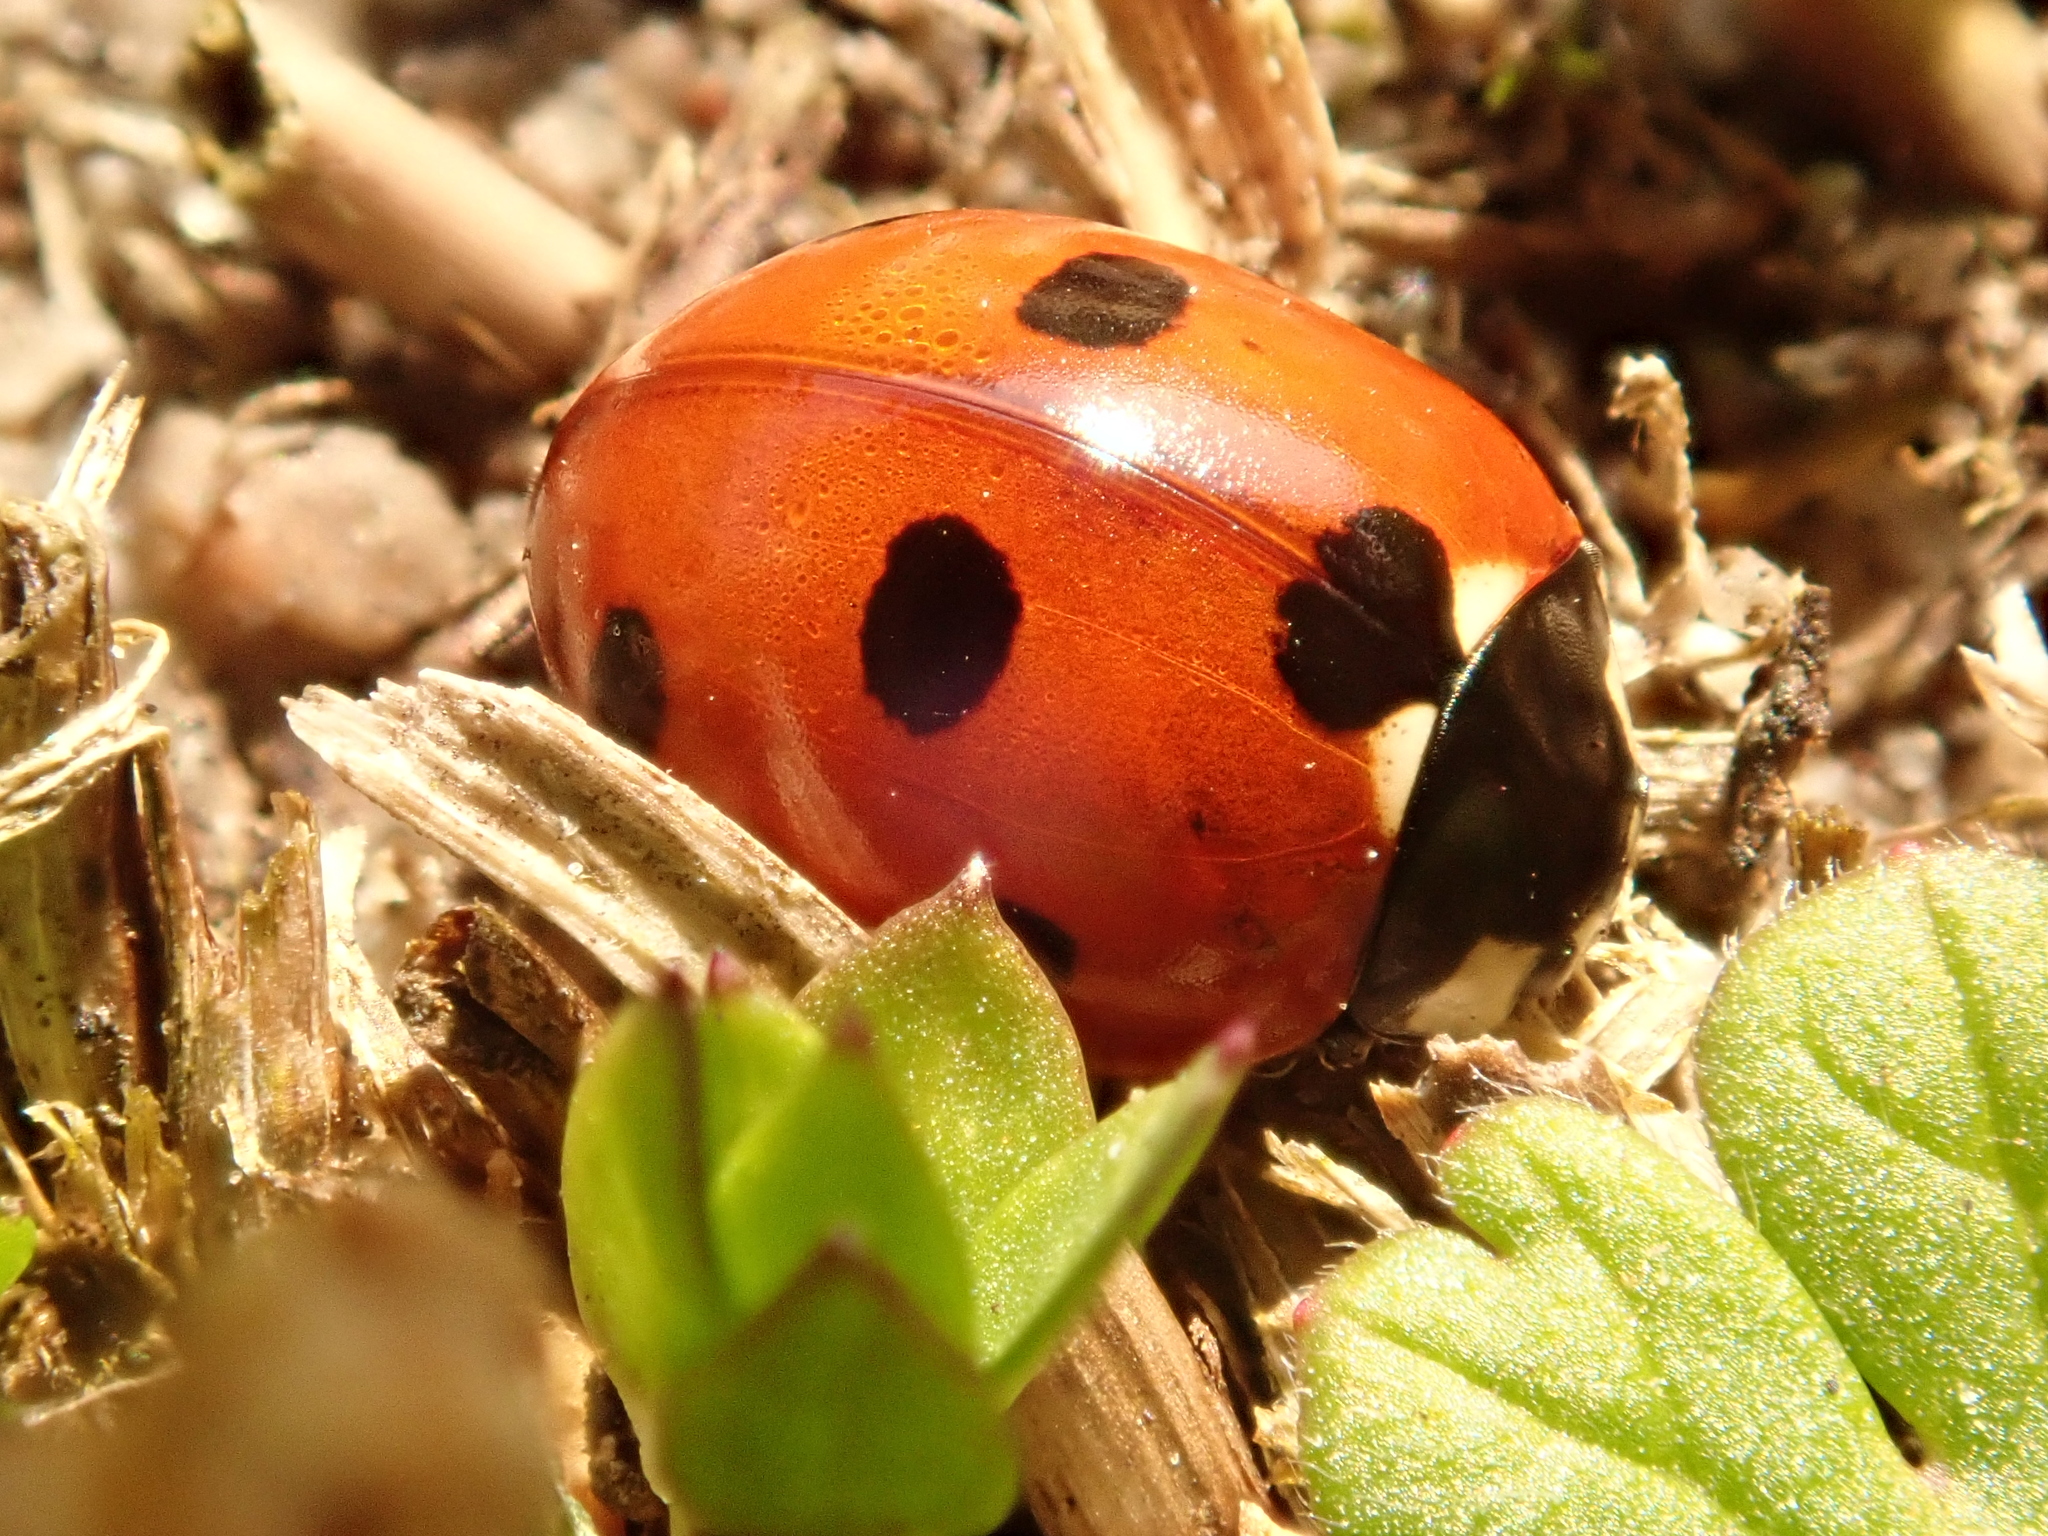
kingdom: Animalia
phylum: Arthropoda
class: Insecta
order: Coleoptera
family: Coccinellidae
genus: Coccinella
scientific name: Coccinella septempunctata
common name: Sevenspotted lady beetle
